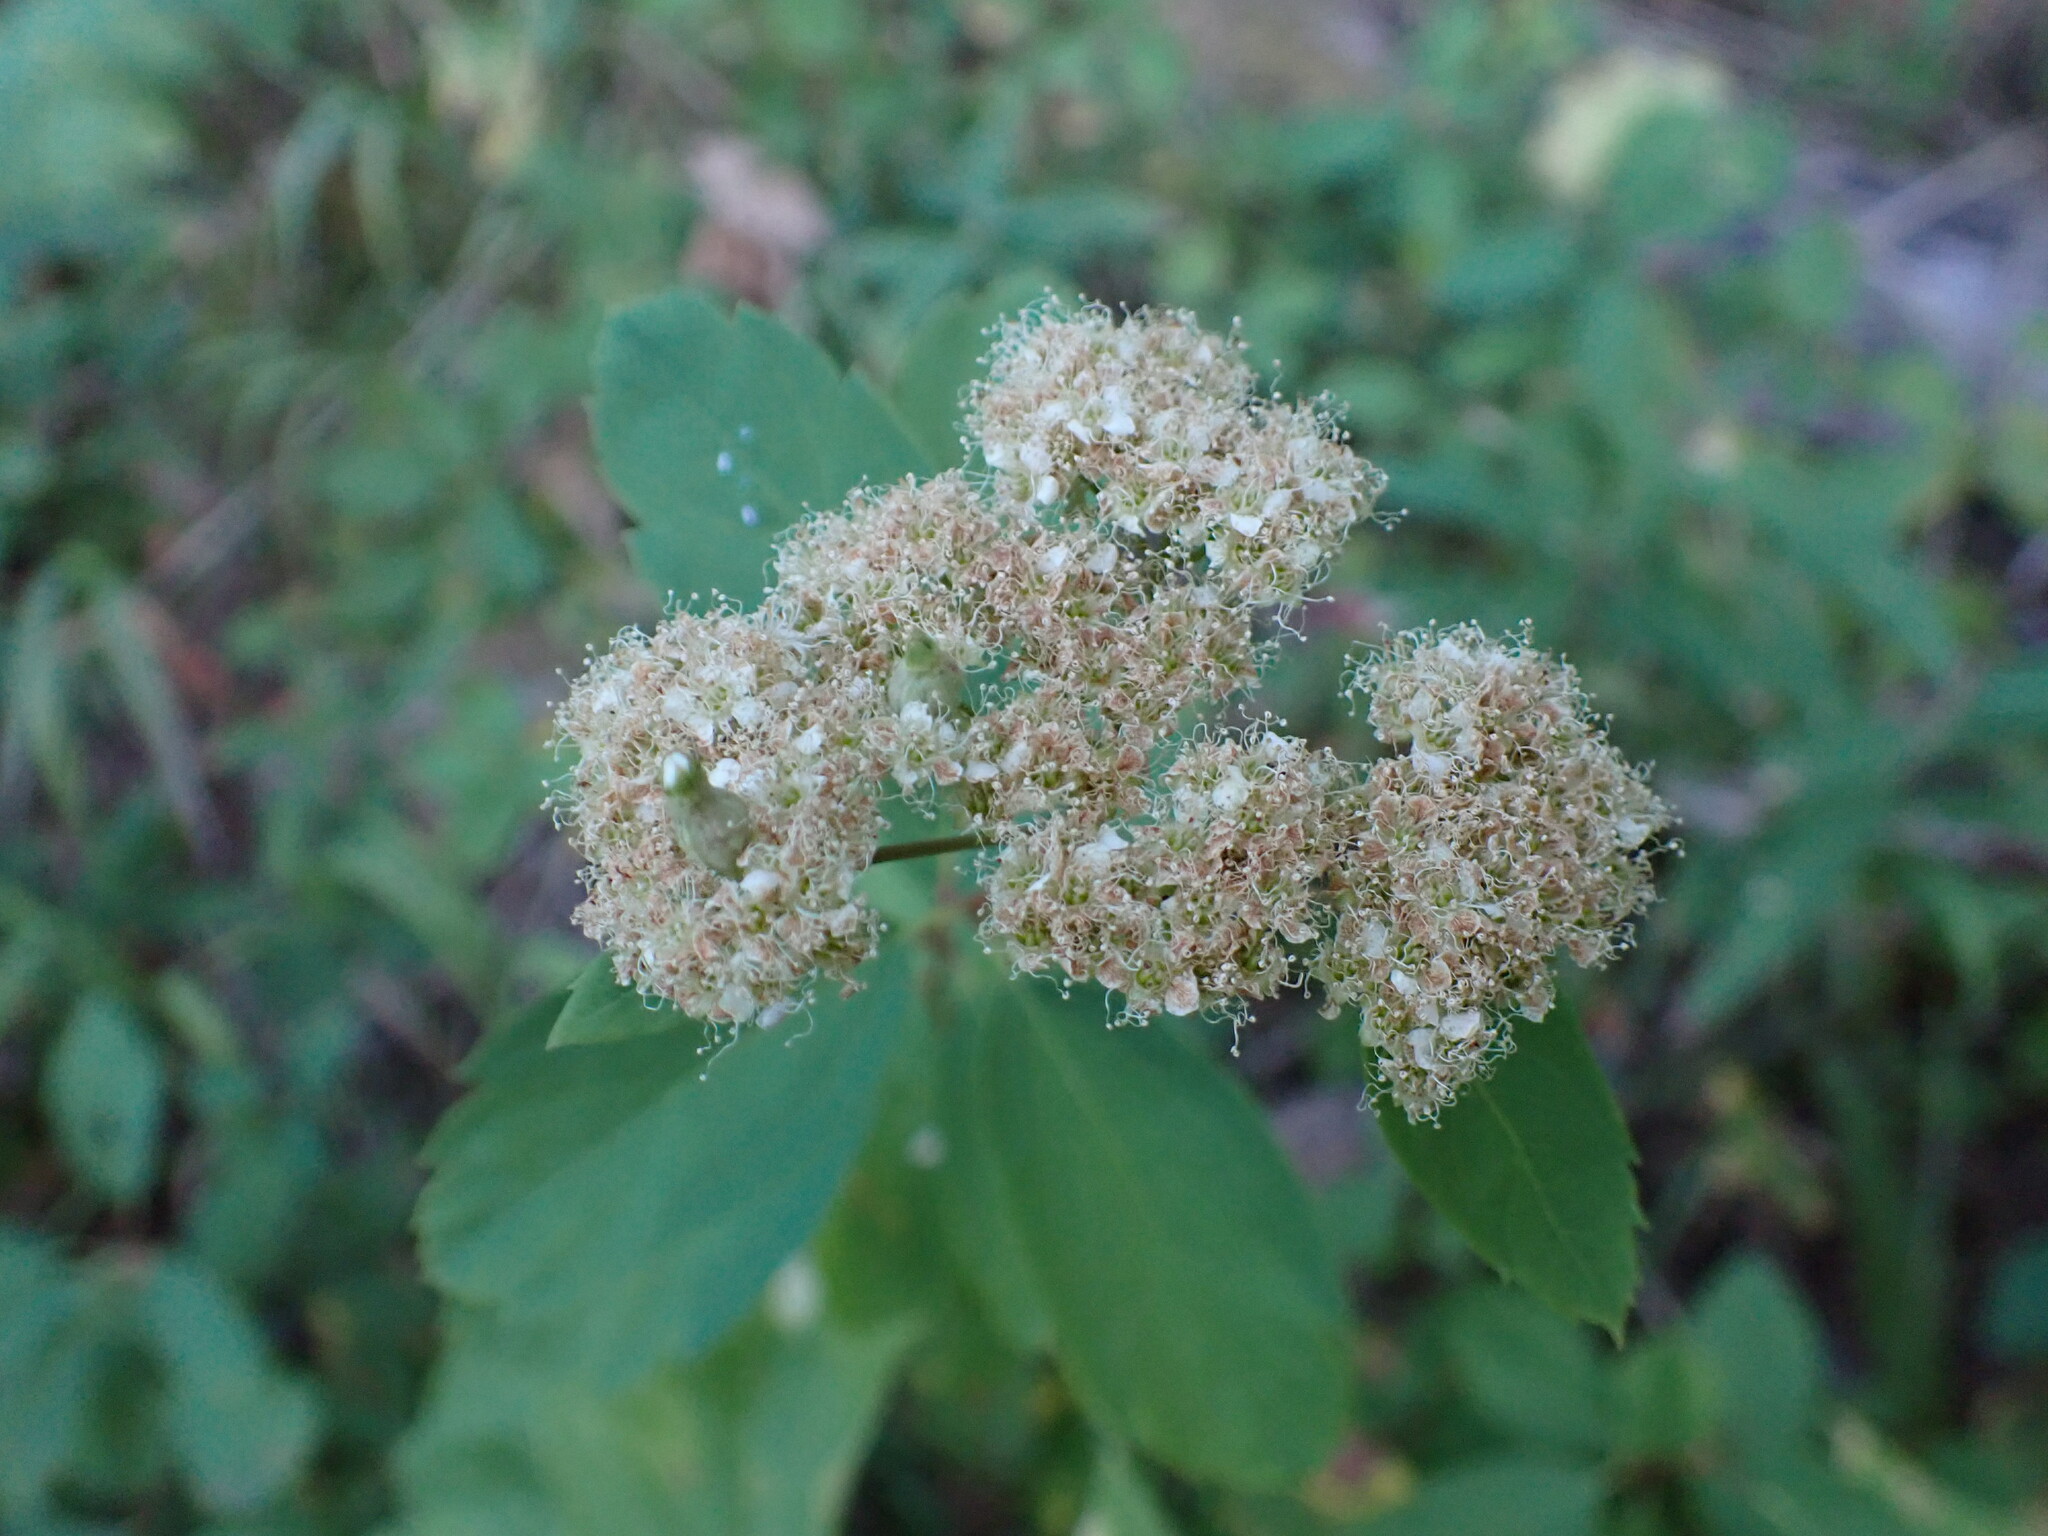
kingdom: Plantae
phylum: Tracheophyta
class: Magnoliopsida
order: Rosales
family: Rosaceae
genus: Spiraea
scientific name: Spiraea lucida
